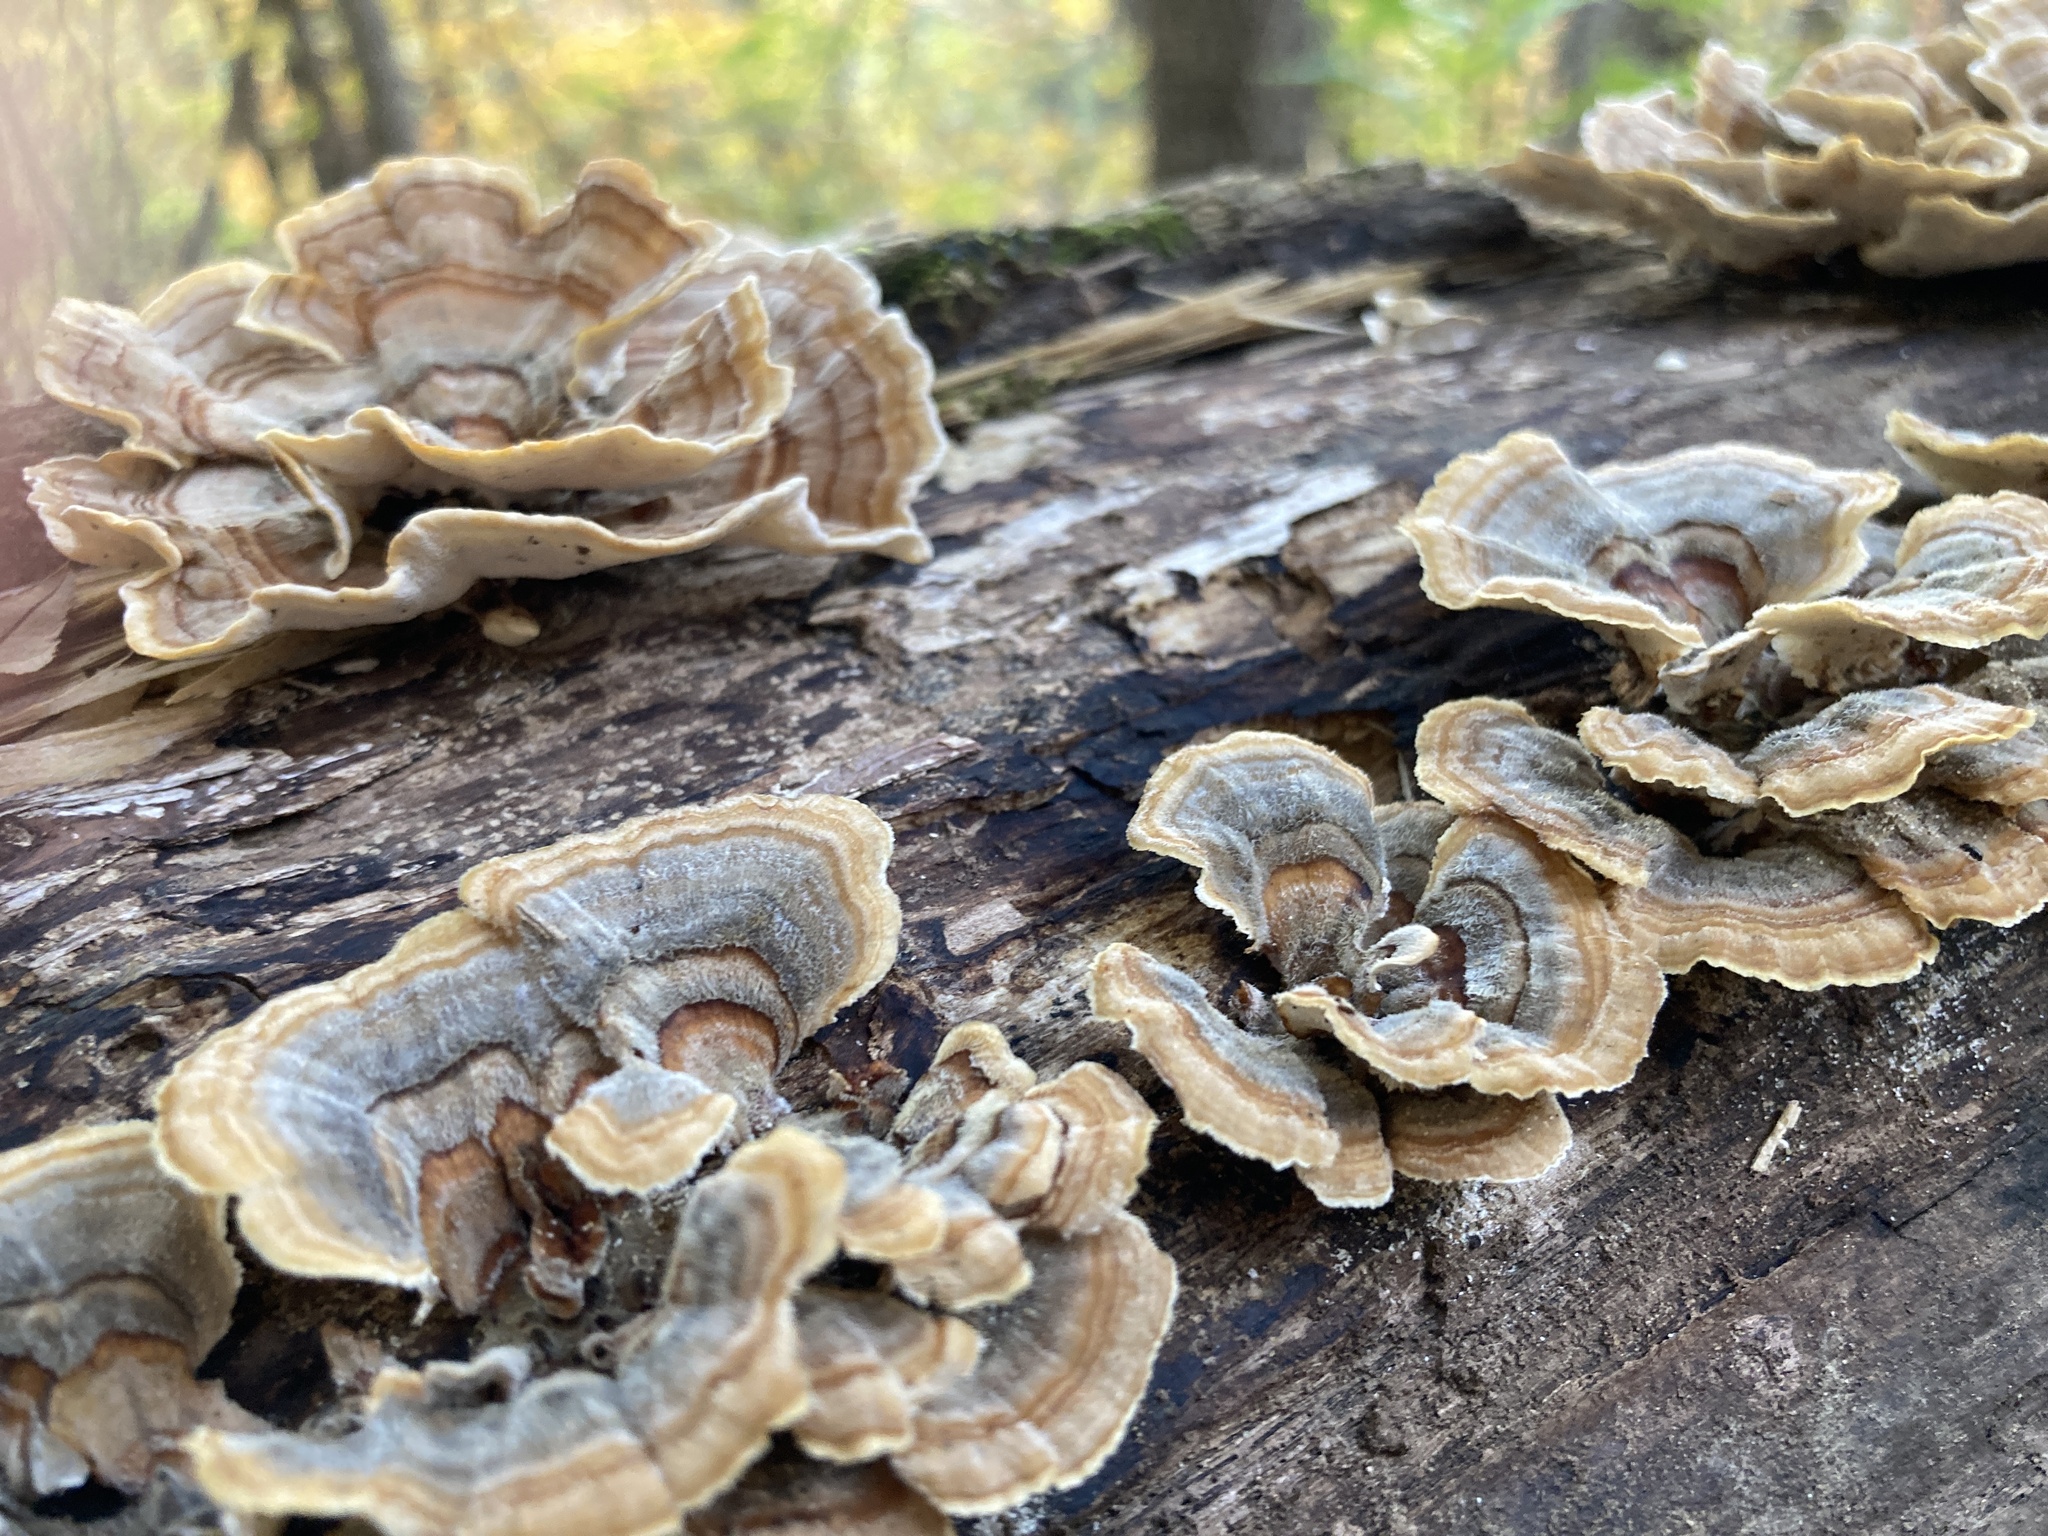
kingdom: Fungi
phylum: Basidiomycota
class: Agaricomycetes
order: Polyporales
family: Polyporaceae
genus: Trametes
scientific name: Trametes versicolor
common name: Turkeytail
